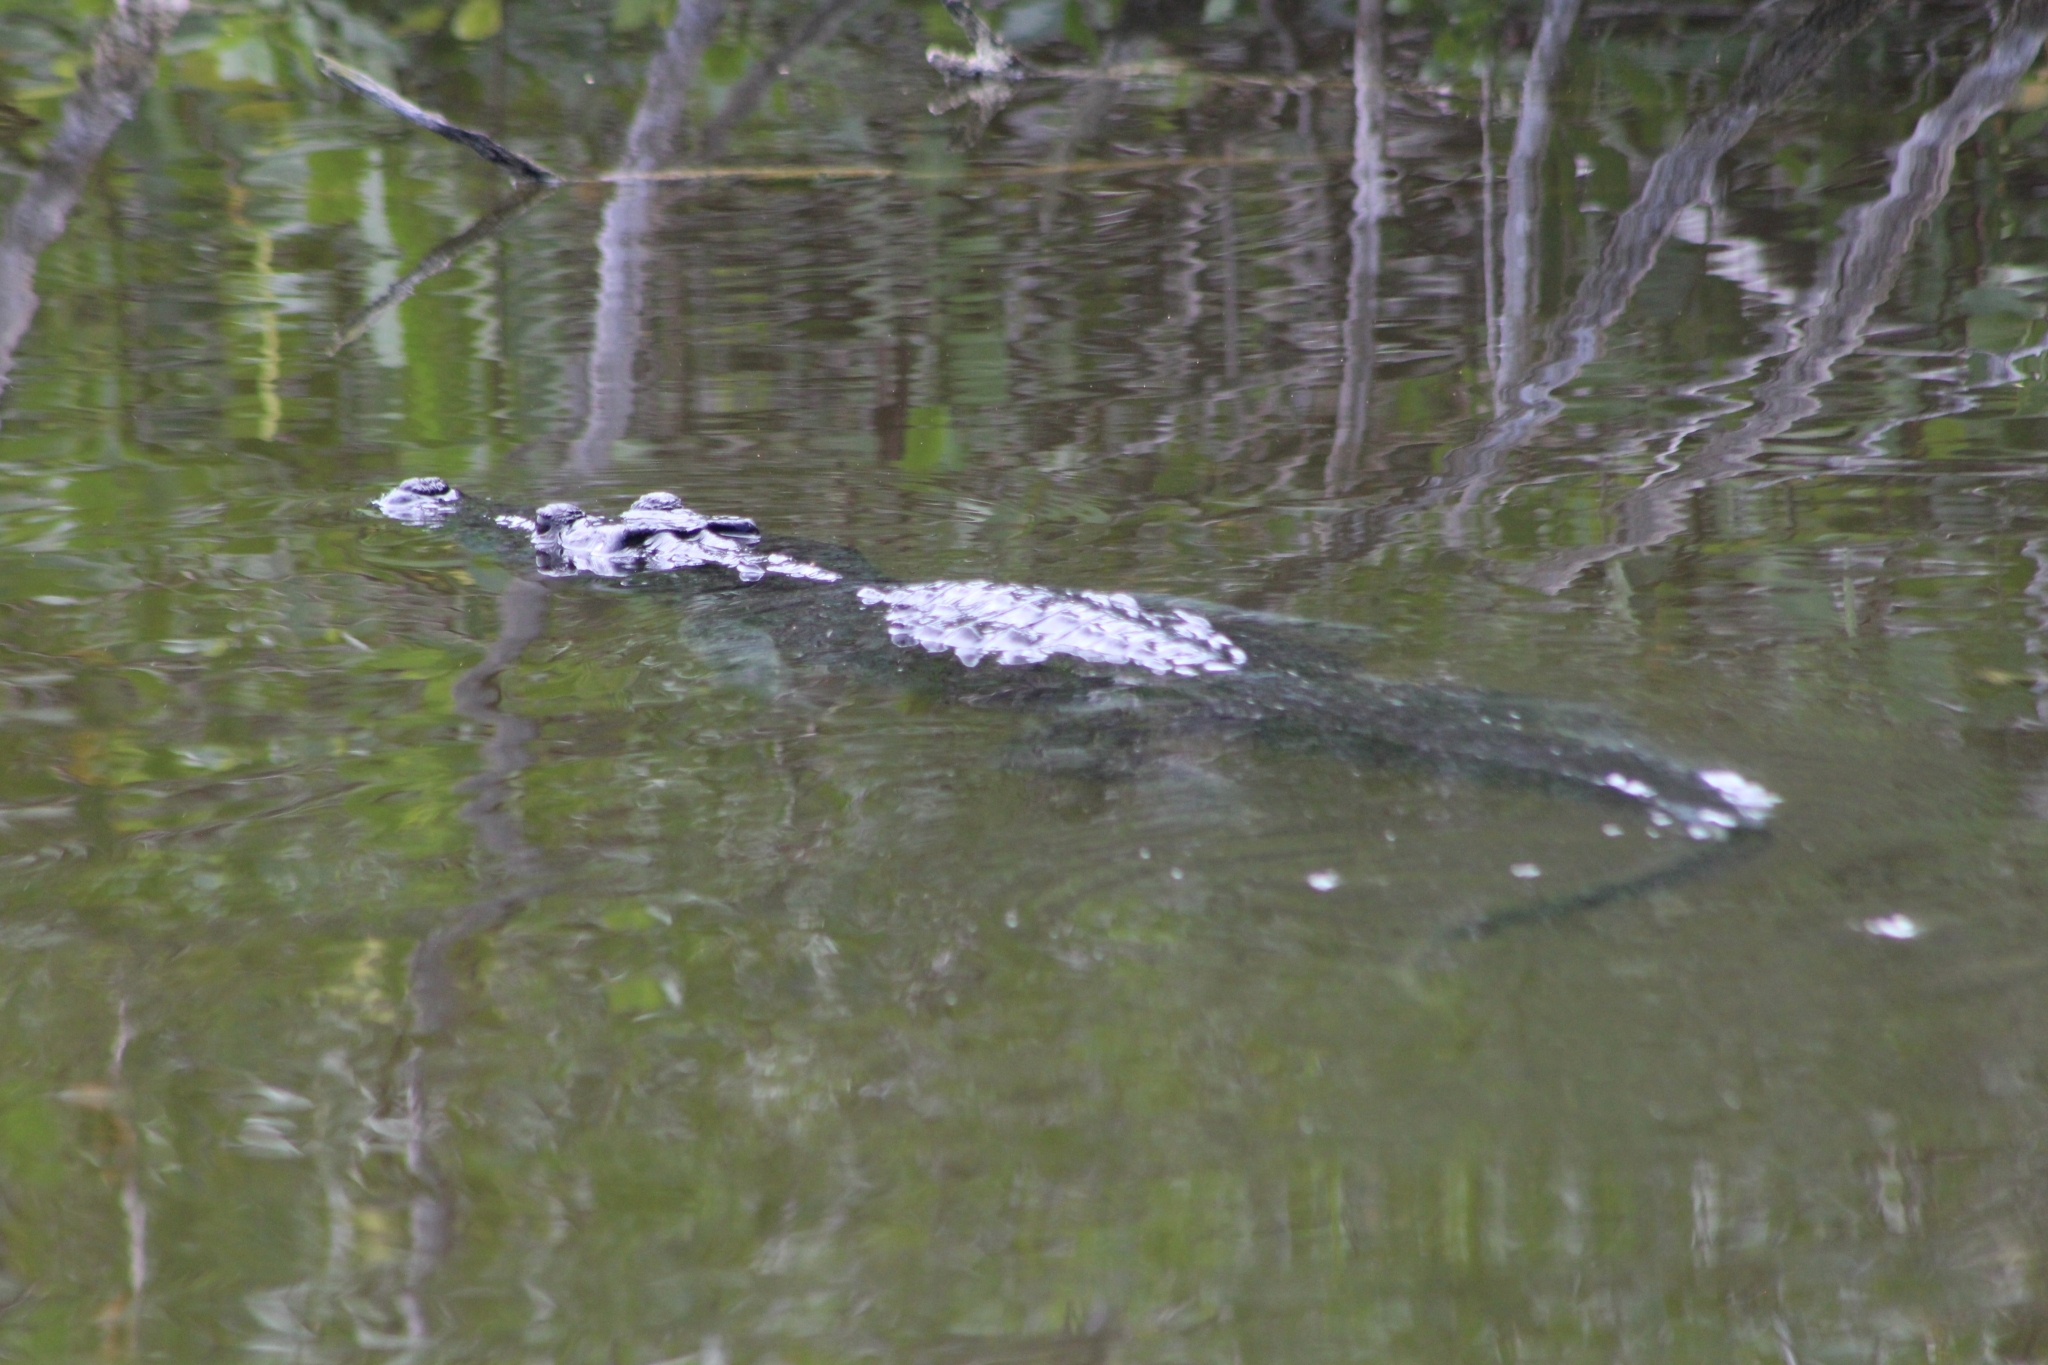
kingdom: Animalia
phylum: Chordata
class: Crocodylia
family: Crocodylidae
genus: Crocodylus
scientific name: Crocodylus moreletii
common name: Morelet's crocodile
